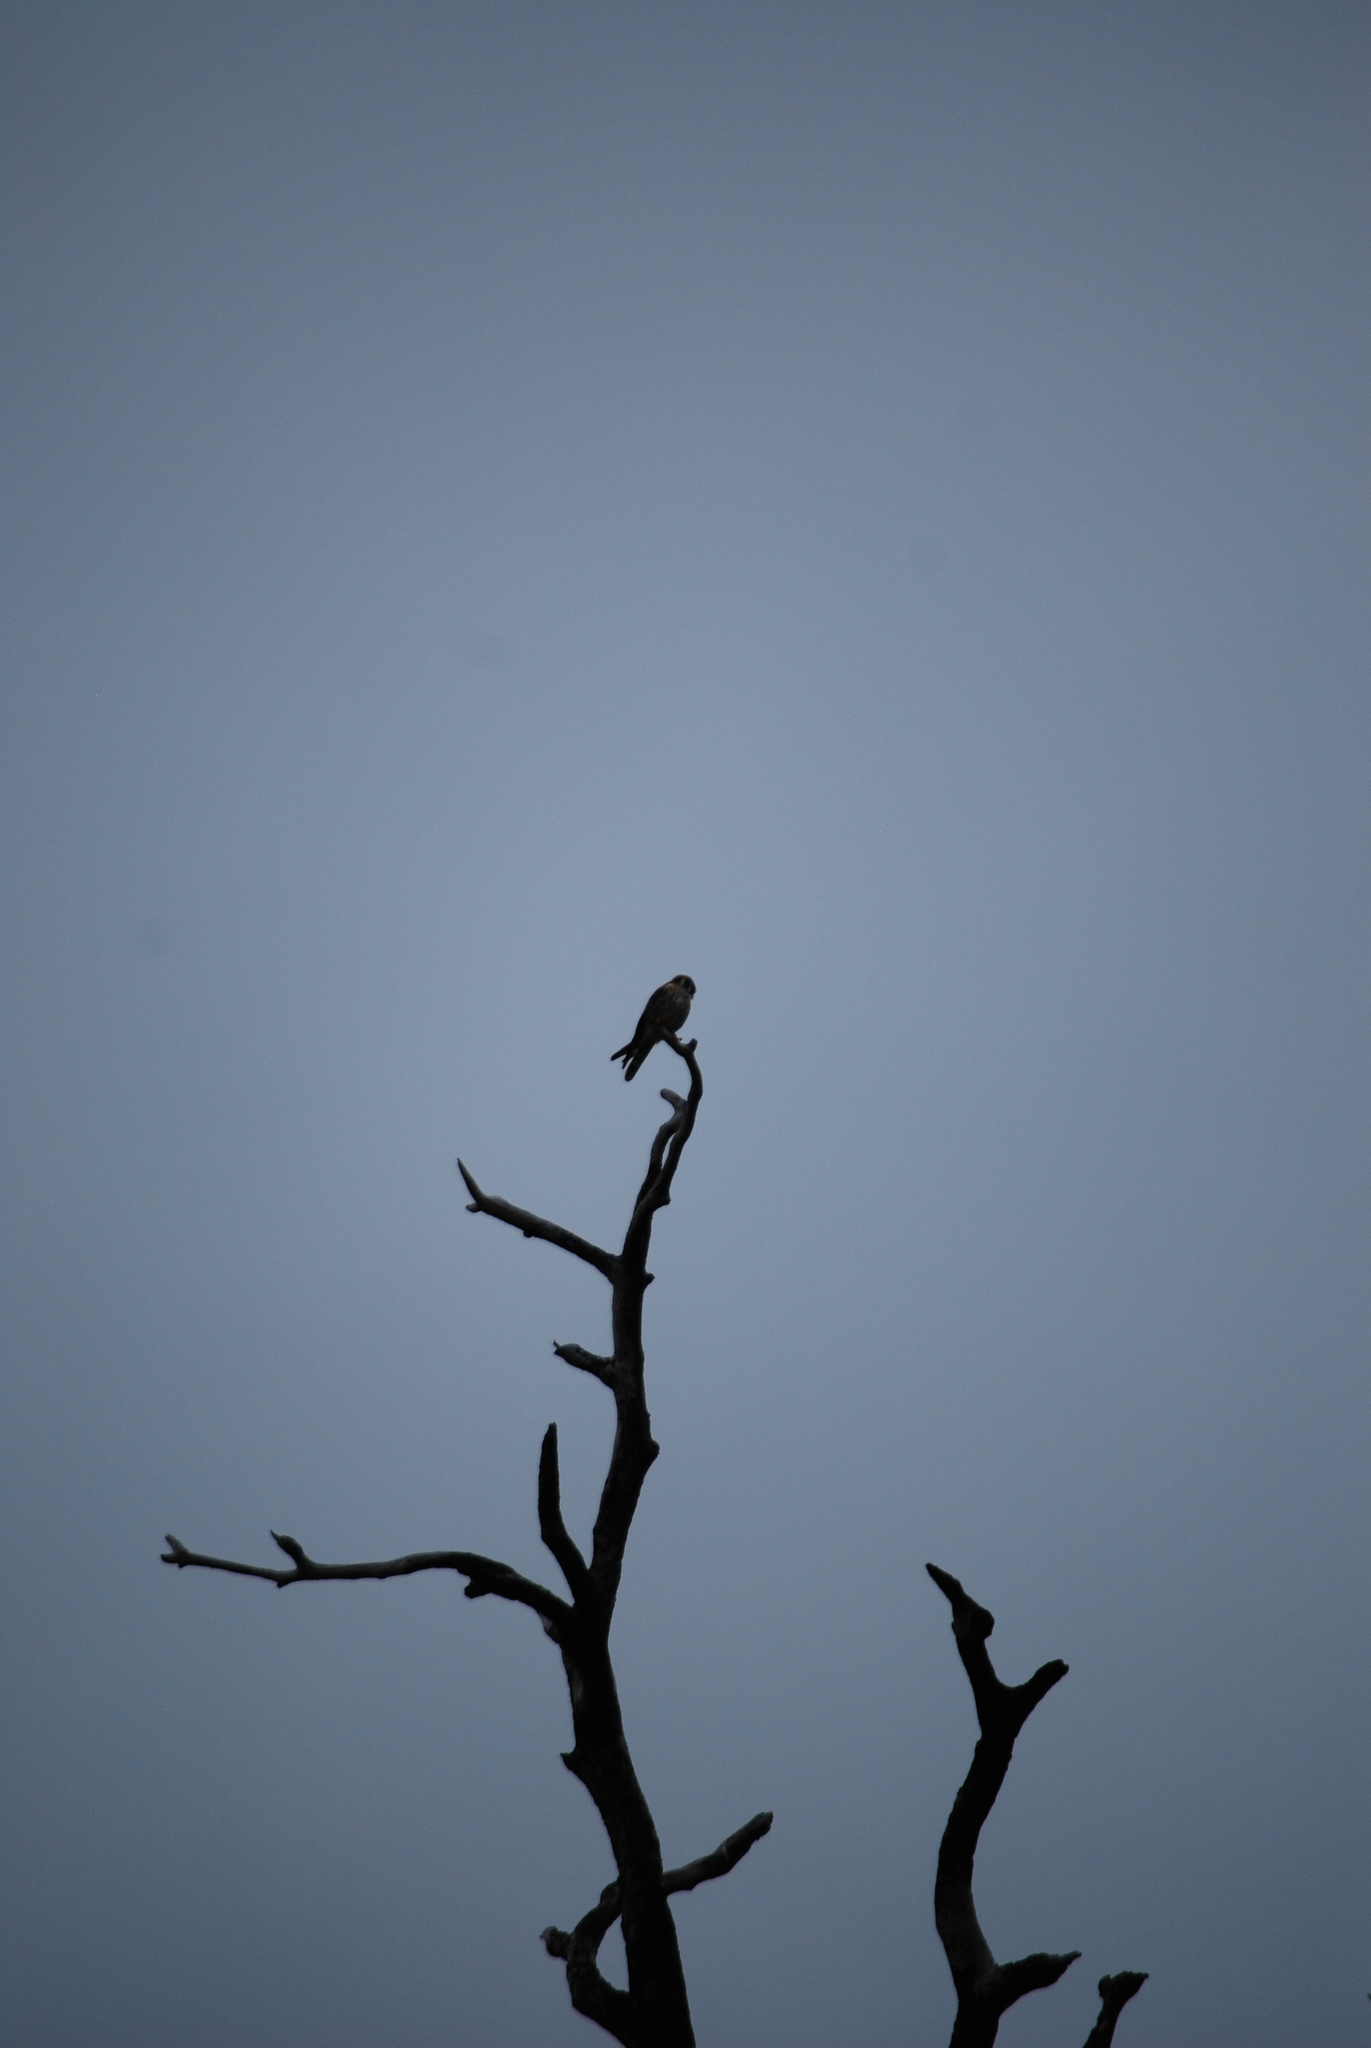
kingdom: Animalia
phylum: Chordata
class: Aves
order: Falconiformes
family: Falconidae
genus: Falco
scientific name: Falco sparverius
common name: American kestrel
